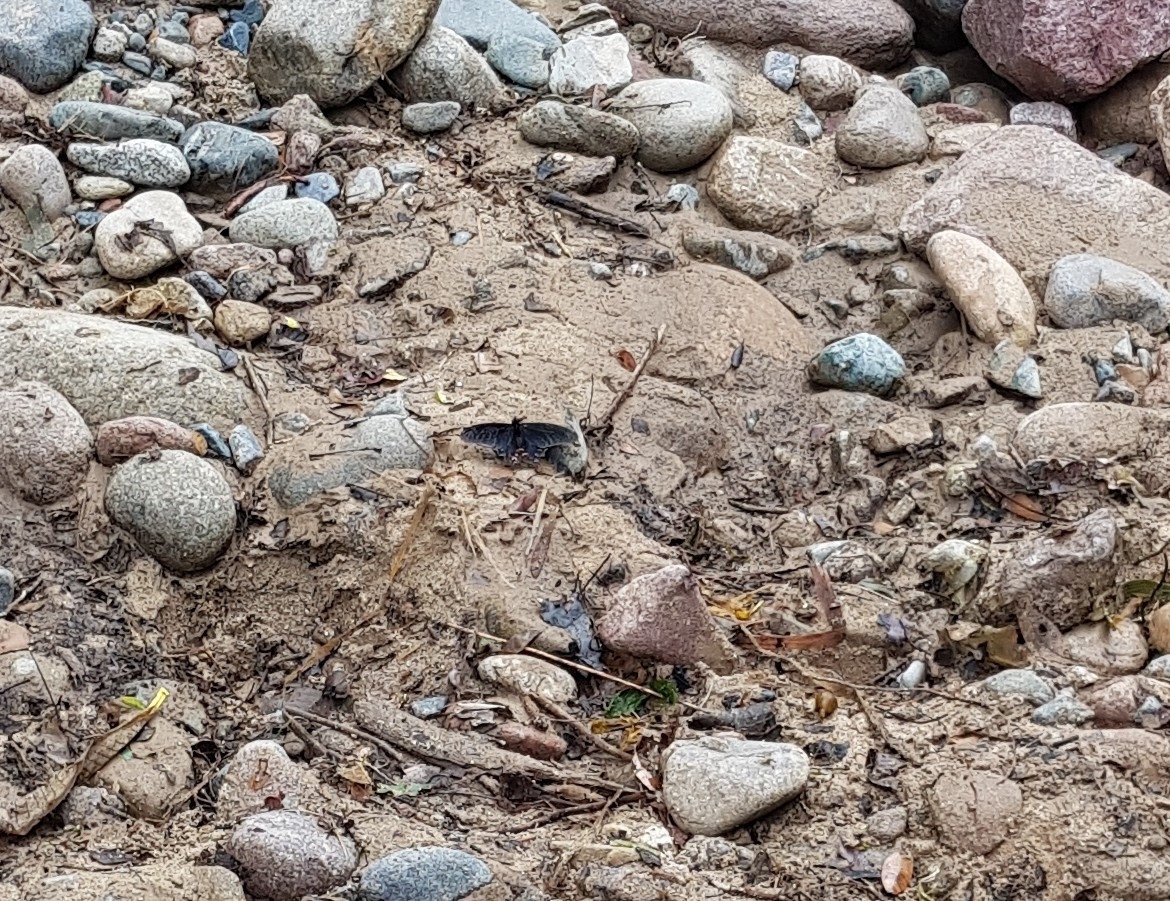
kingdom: Animalia
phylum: Arthropoda
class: Insecta
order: Lepidoptera
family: Papilionidae
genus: Mimoides
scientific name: Mimoides thymbraeus
